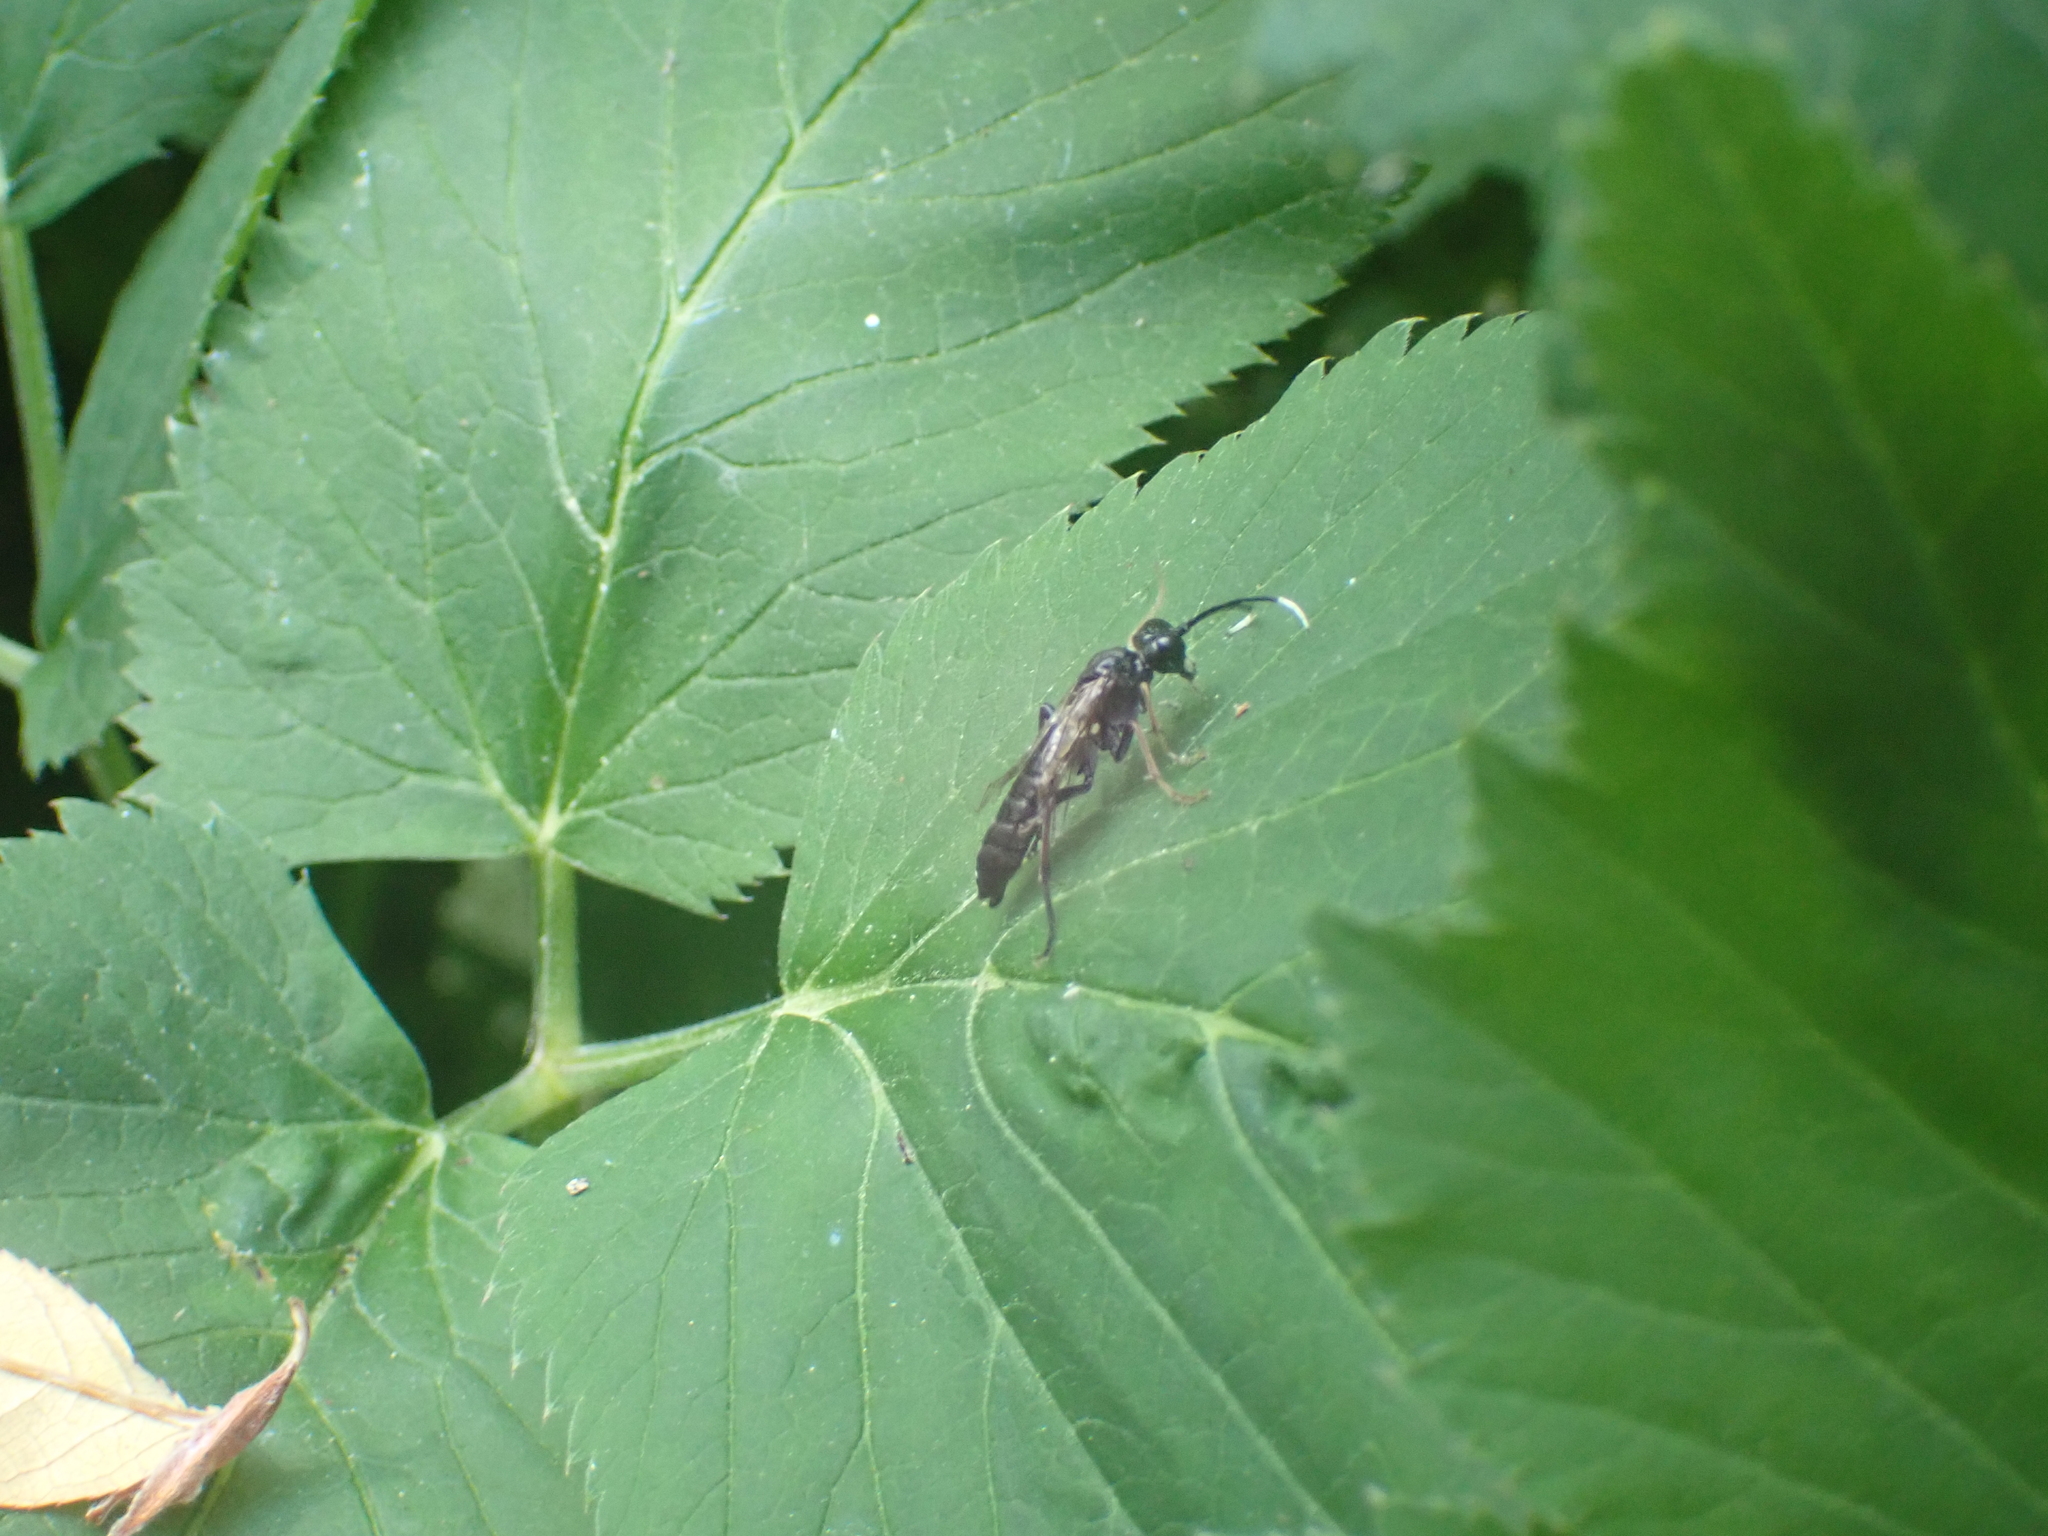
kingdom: Animalia
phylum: Arthropoda
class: Insecta
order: Hymenoptera
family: Tenthredinidae
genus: Tenthredo
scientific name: Tenthredo livida
